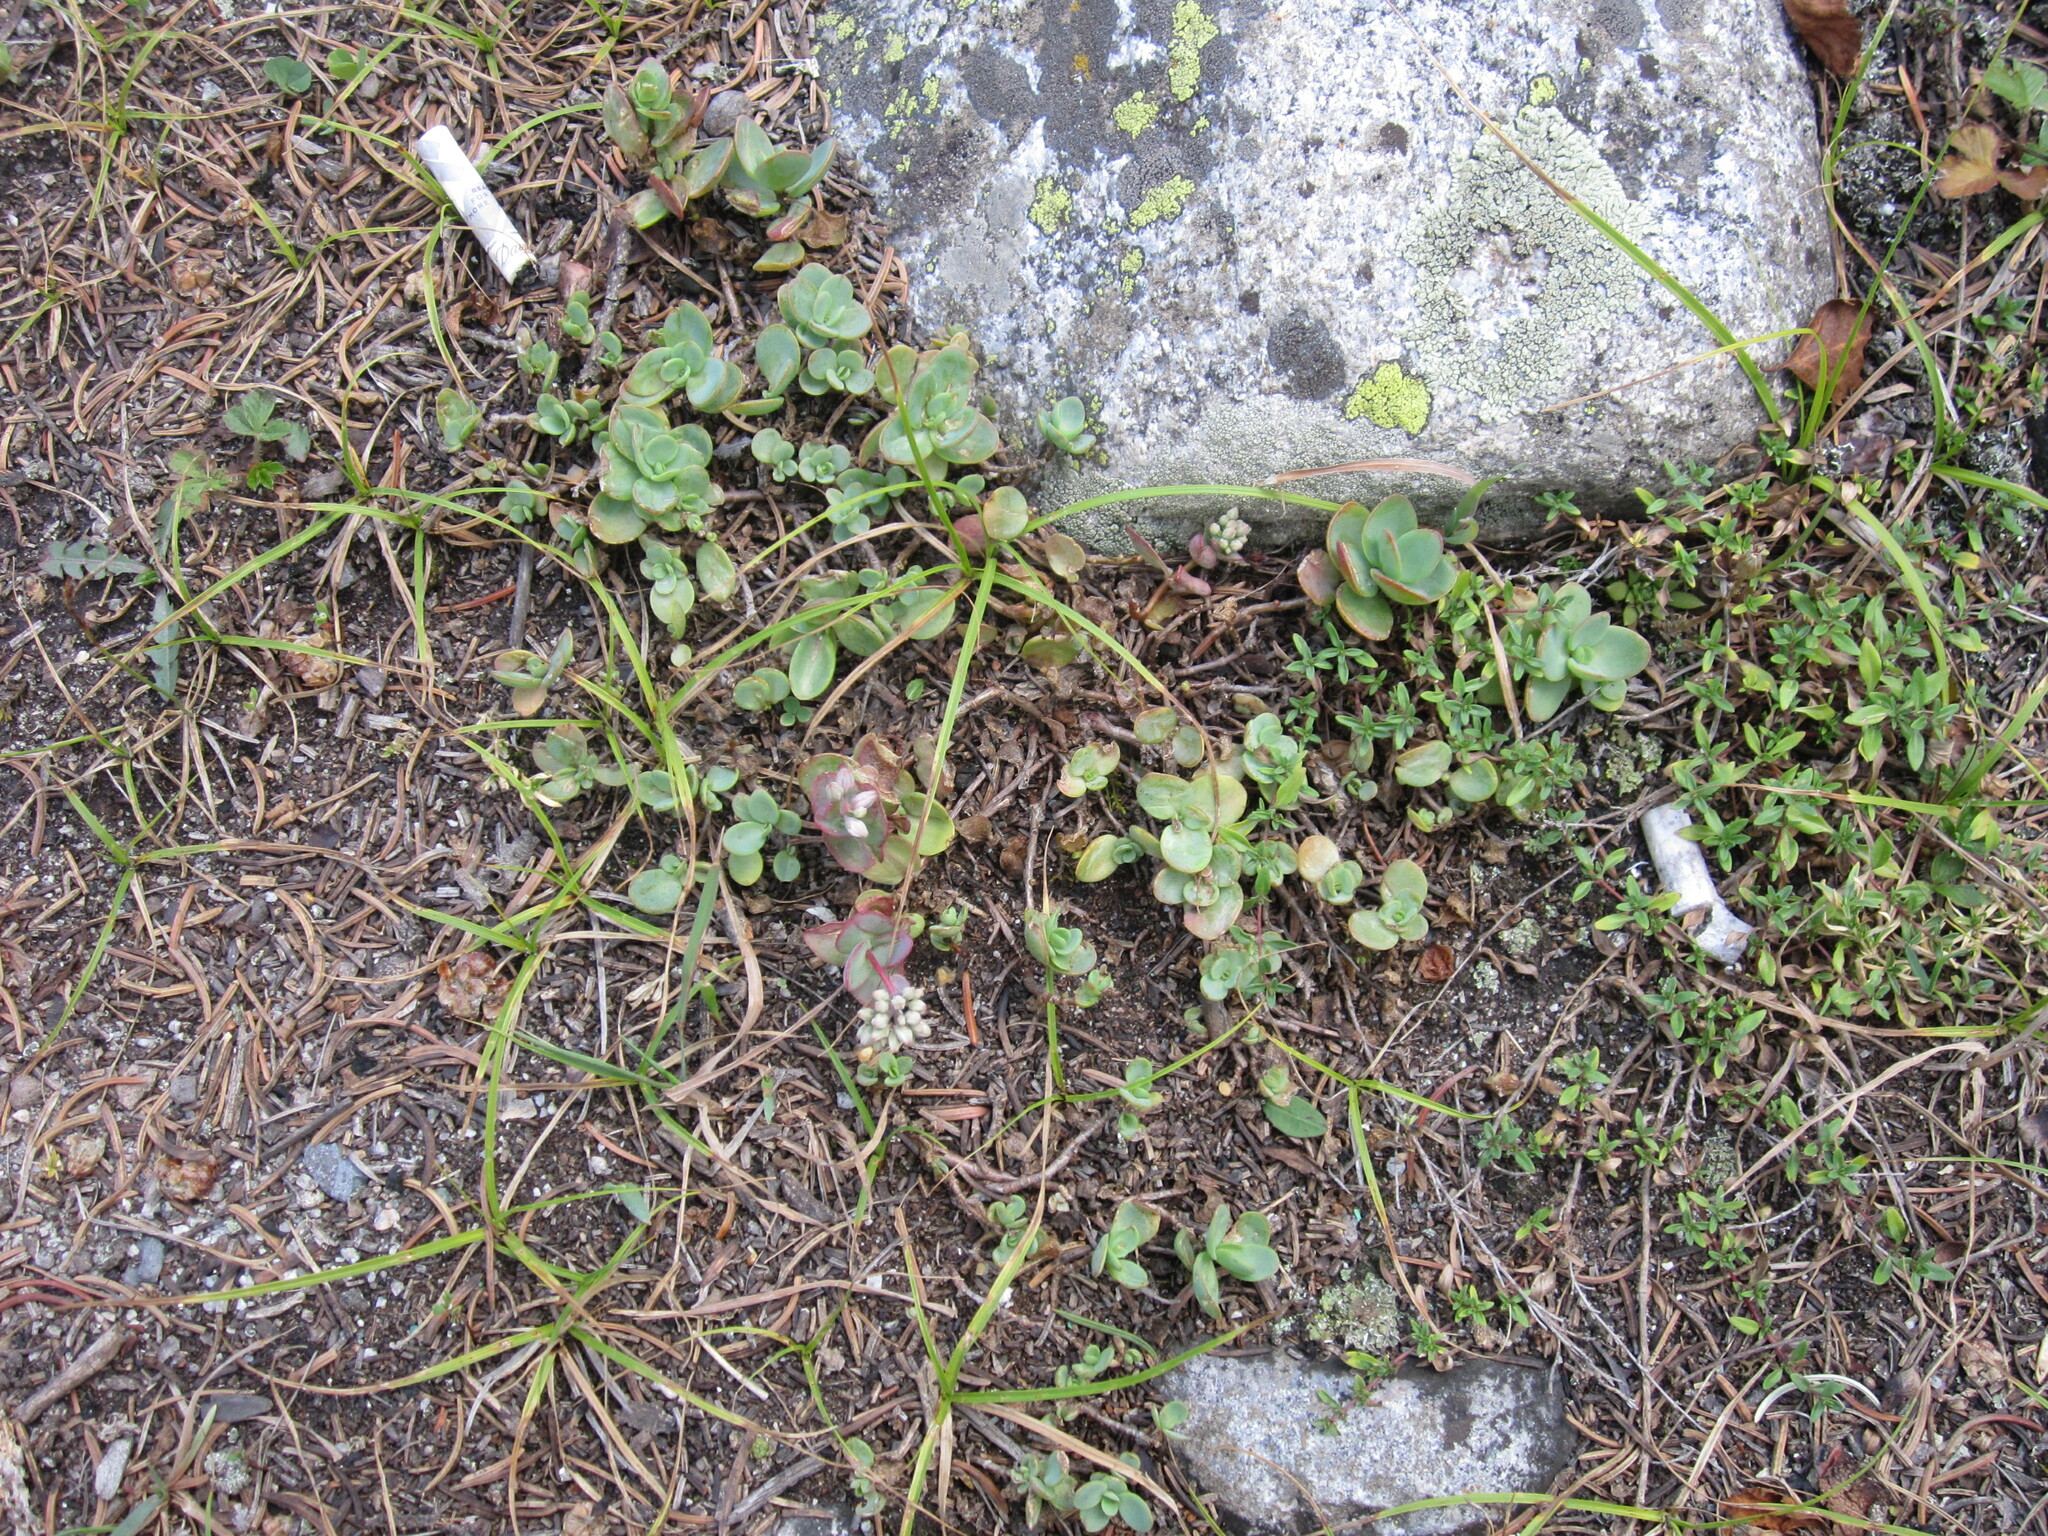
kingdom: Plantae
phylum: Tracheophyta
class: Magnoliopsida
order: Saxifragales
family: Crassulaceae
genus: Hylotelephium
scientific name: Hylotelephium ewersii
